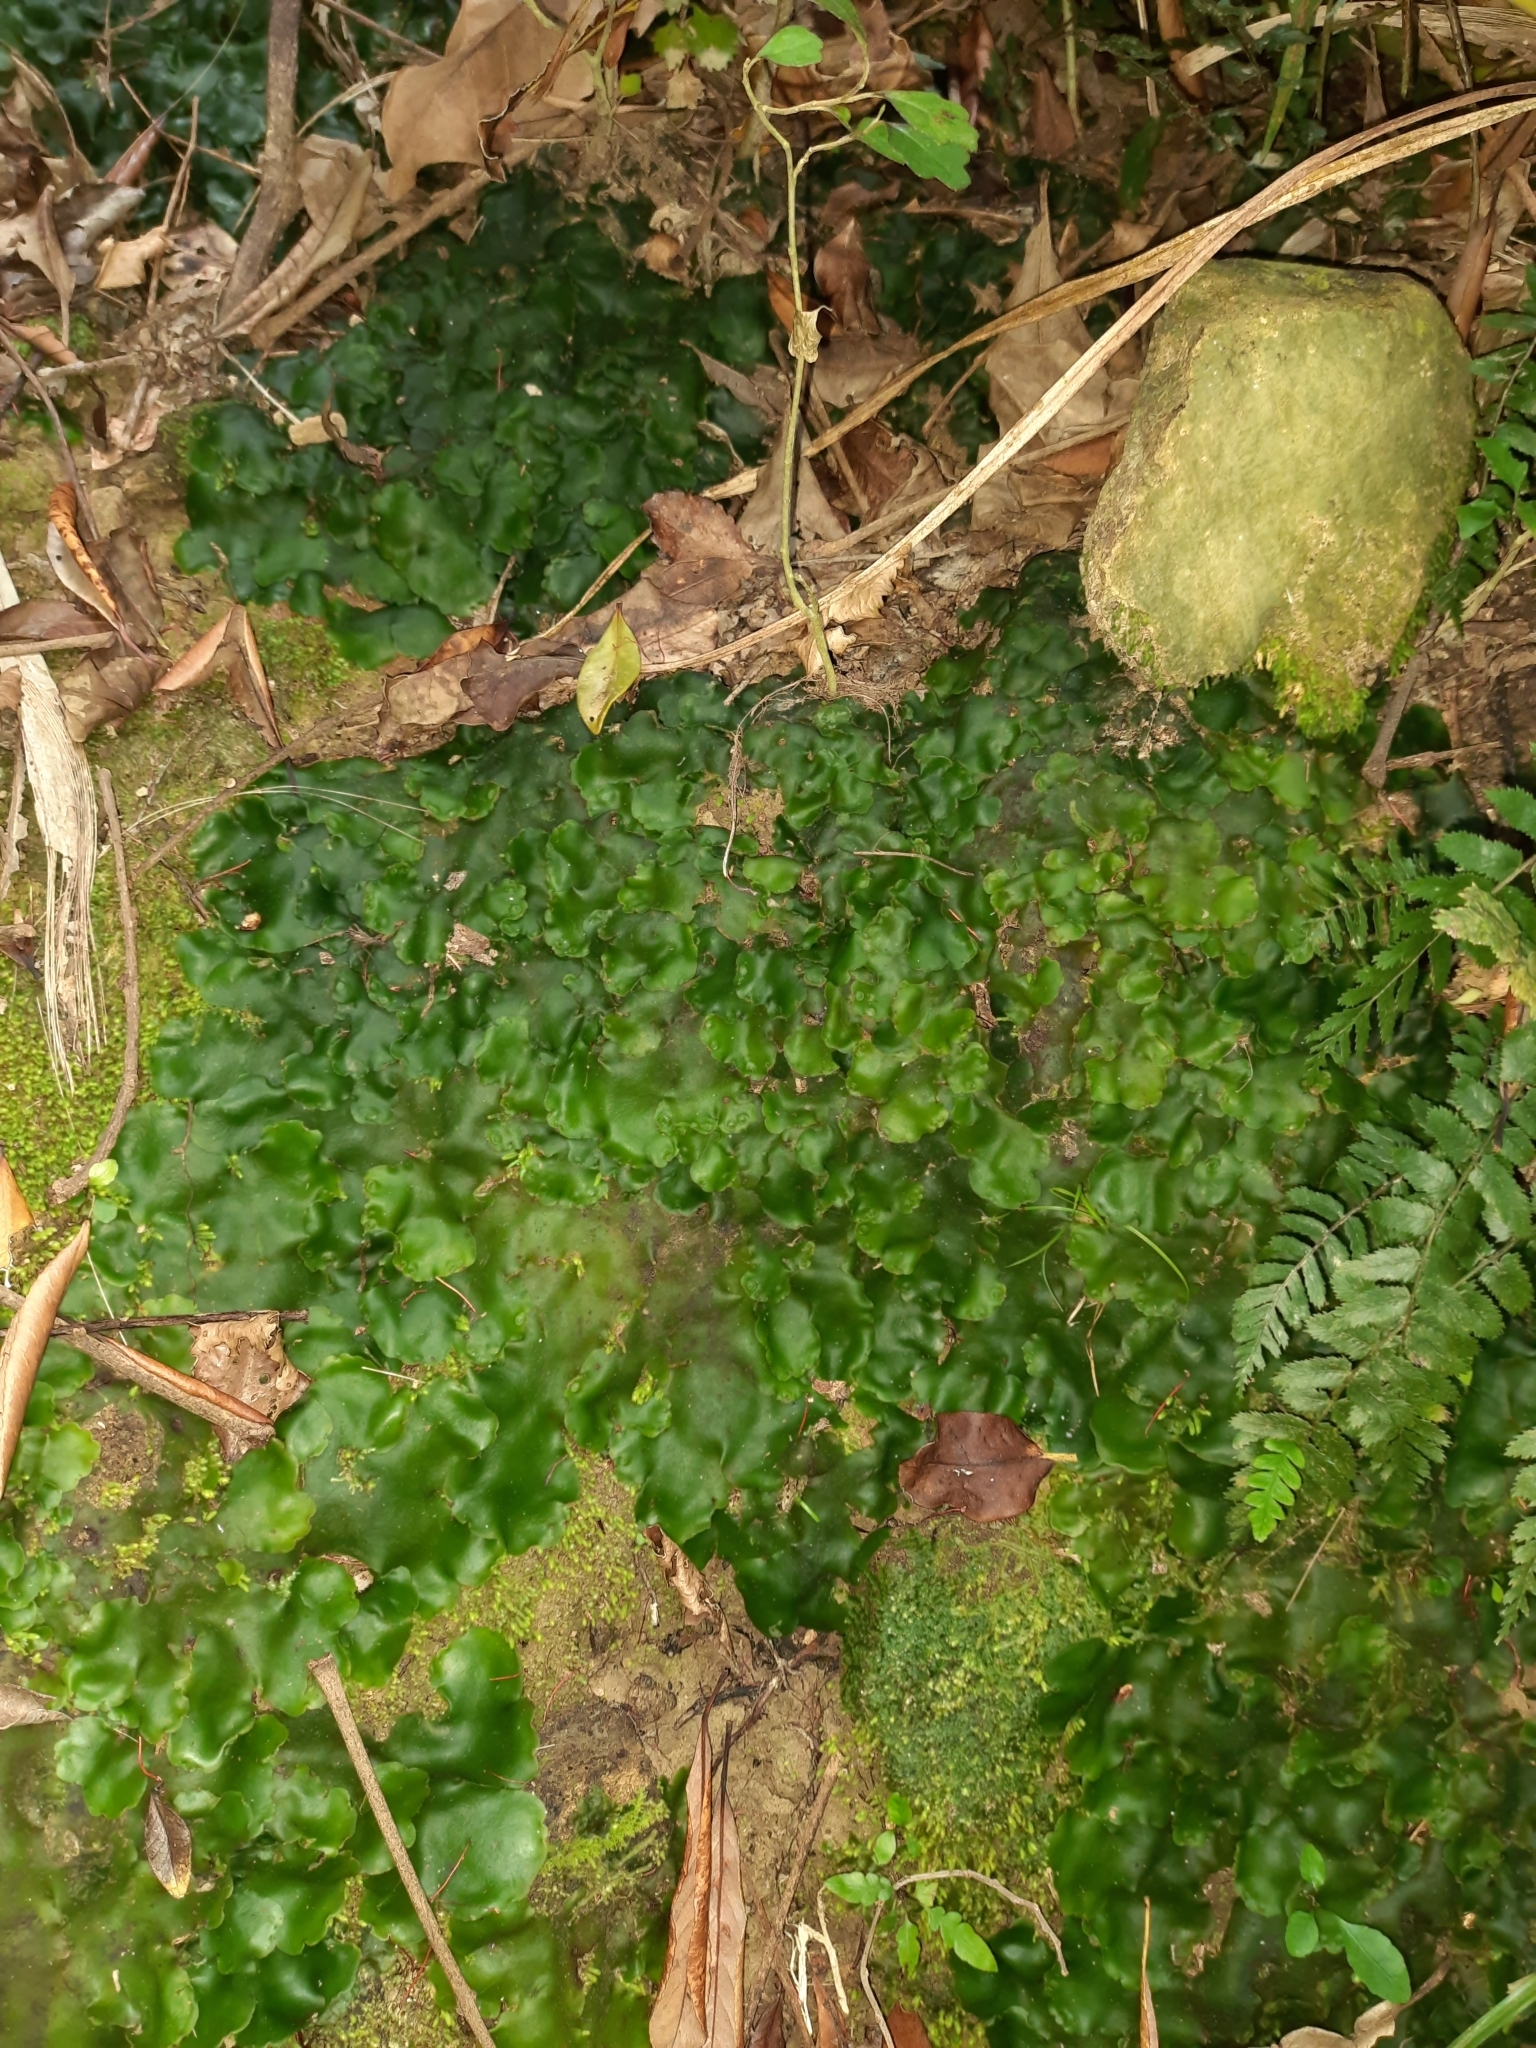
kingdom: Plantae
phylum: Marchantiophyta
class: Marchantiopsida
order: Marchantiales
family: Monocleaceae
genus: Monoclea
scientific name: Monoclea forsteri
